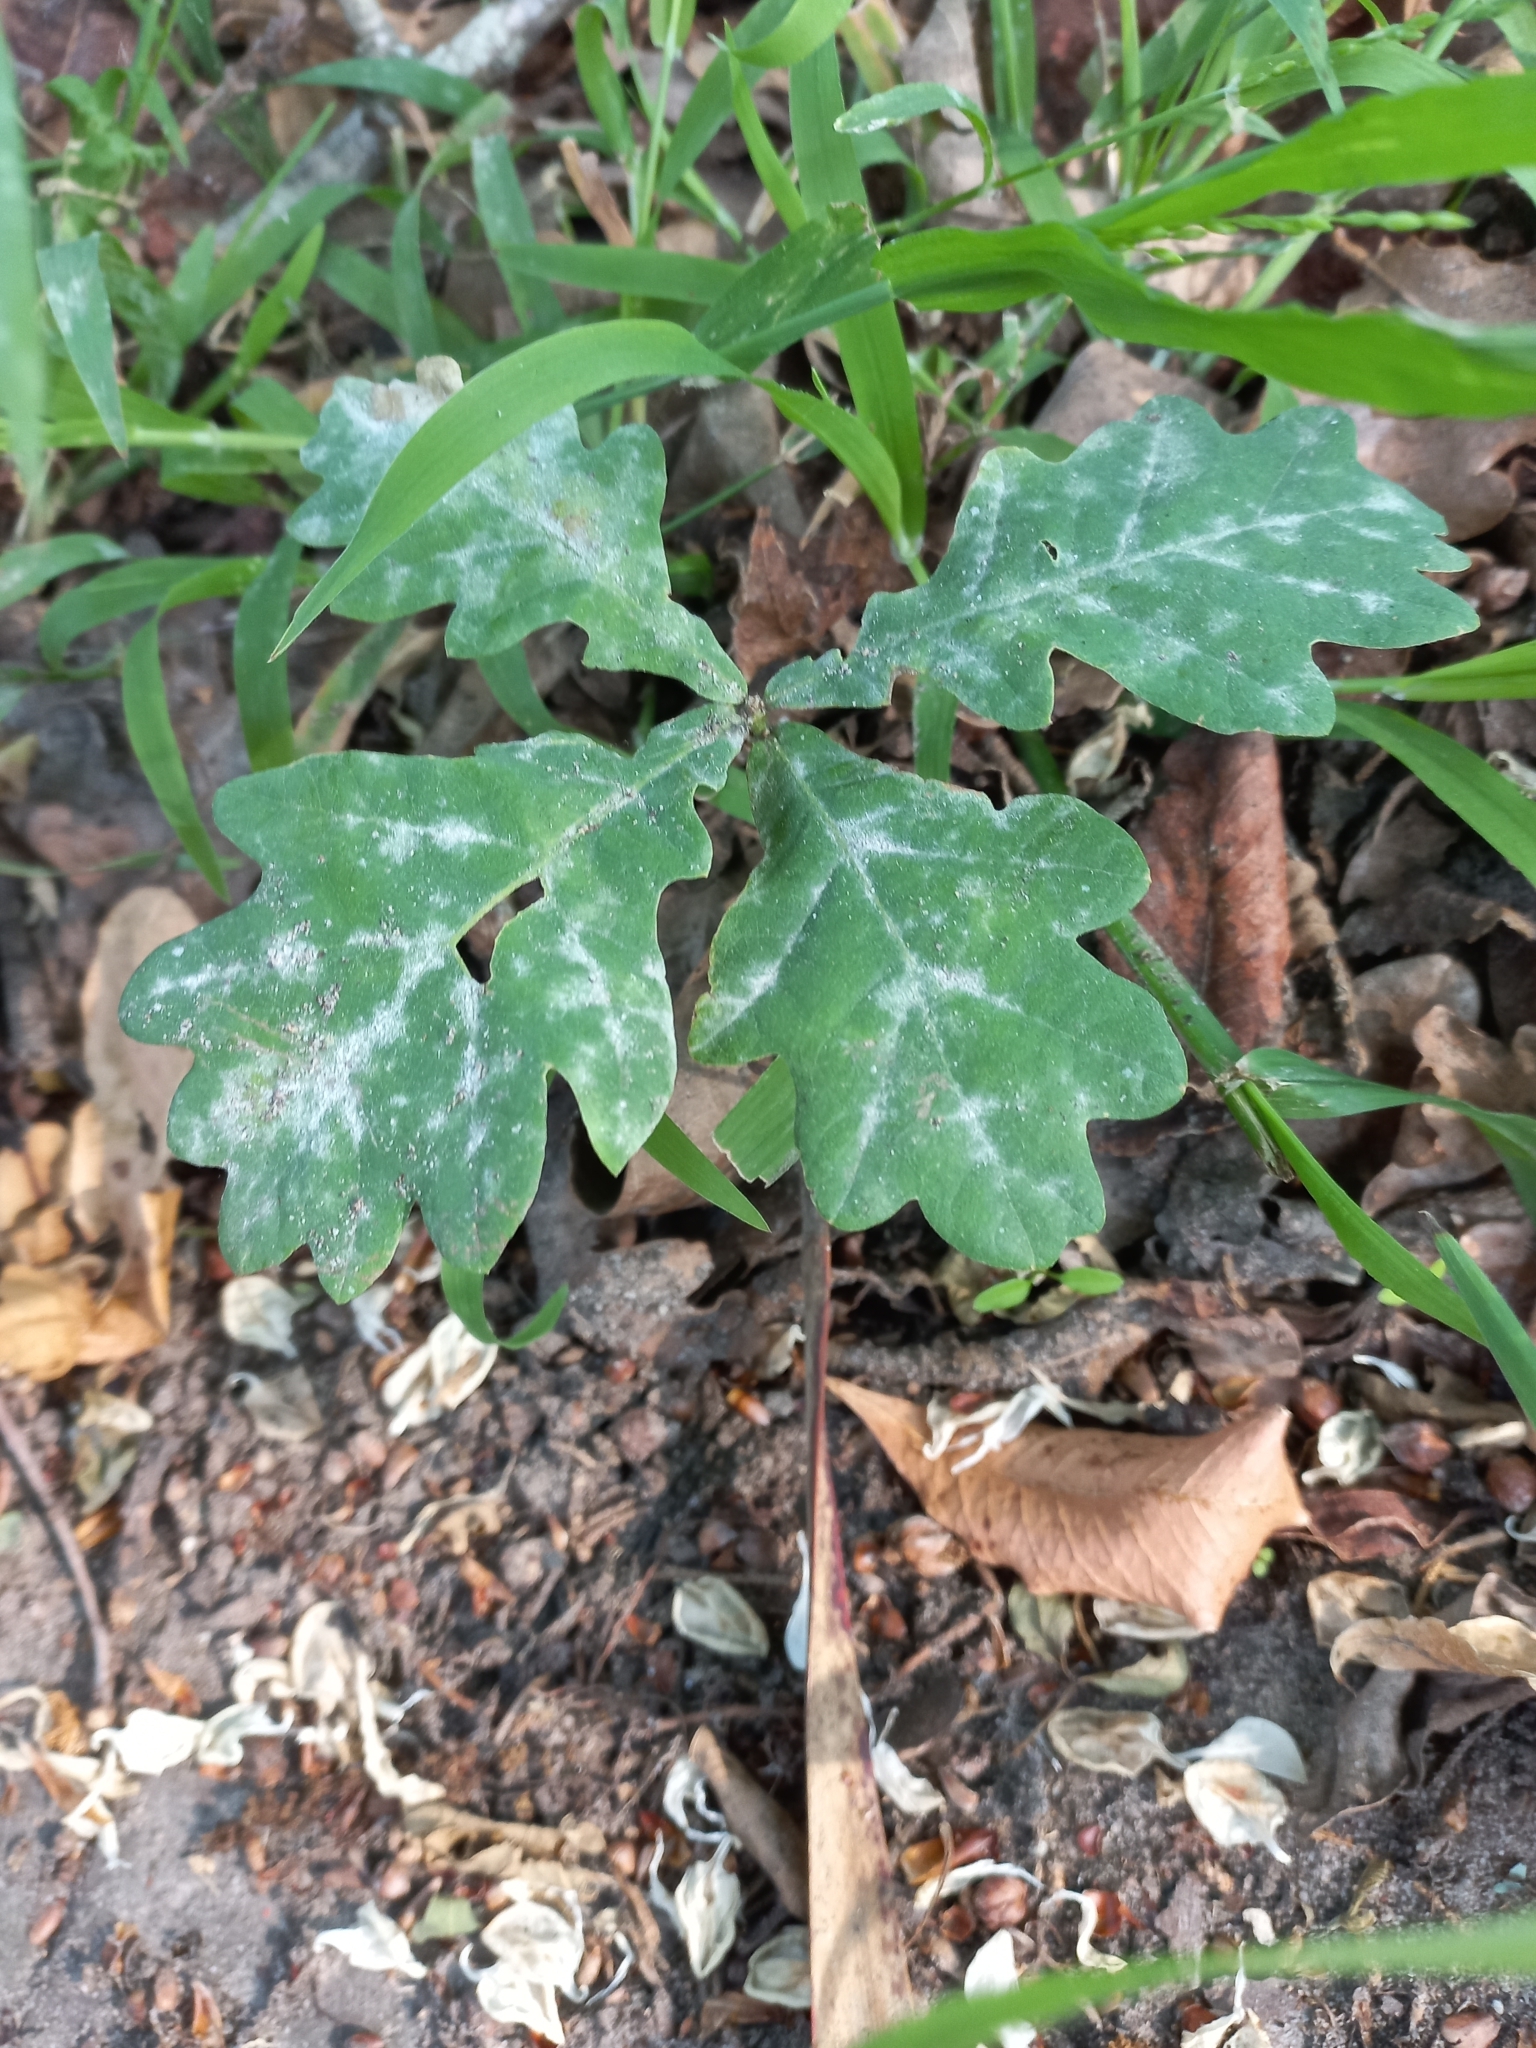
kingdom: Plantae
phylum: Tracheophyta
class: Magnoliopsida
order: Fagales
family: Fagaceae
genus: Quercus
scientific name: Quercus robur
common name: Pedunculate oak
